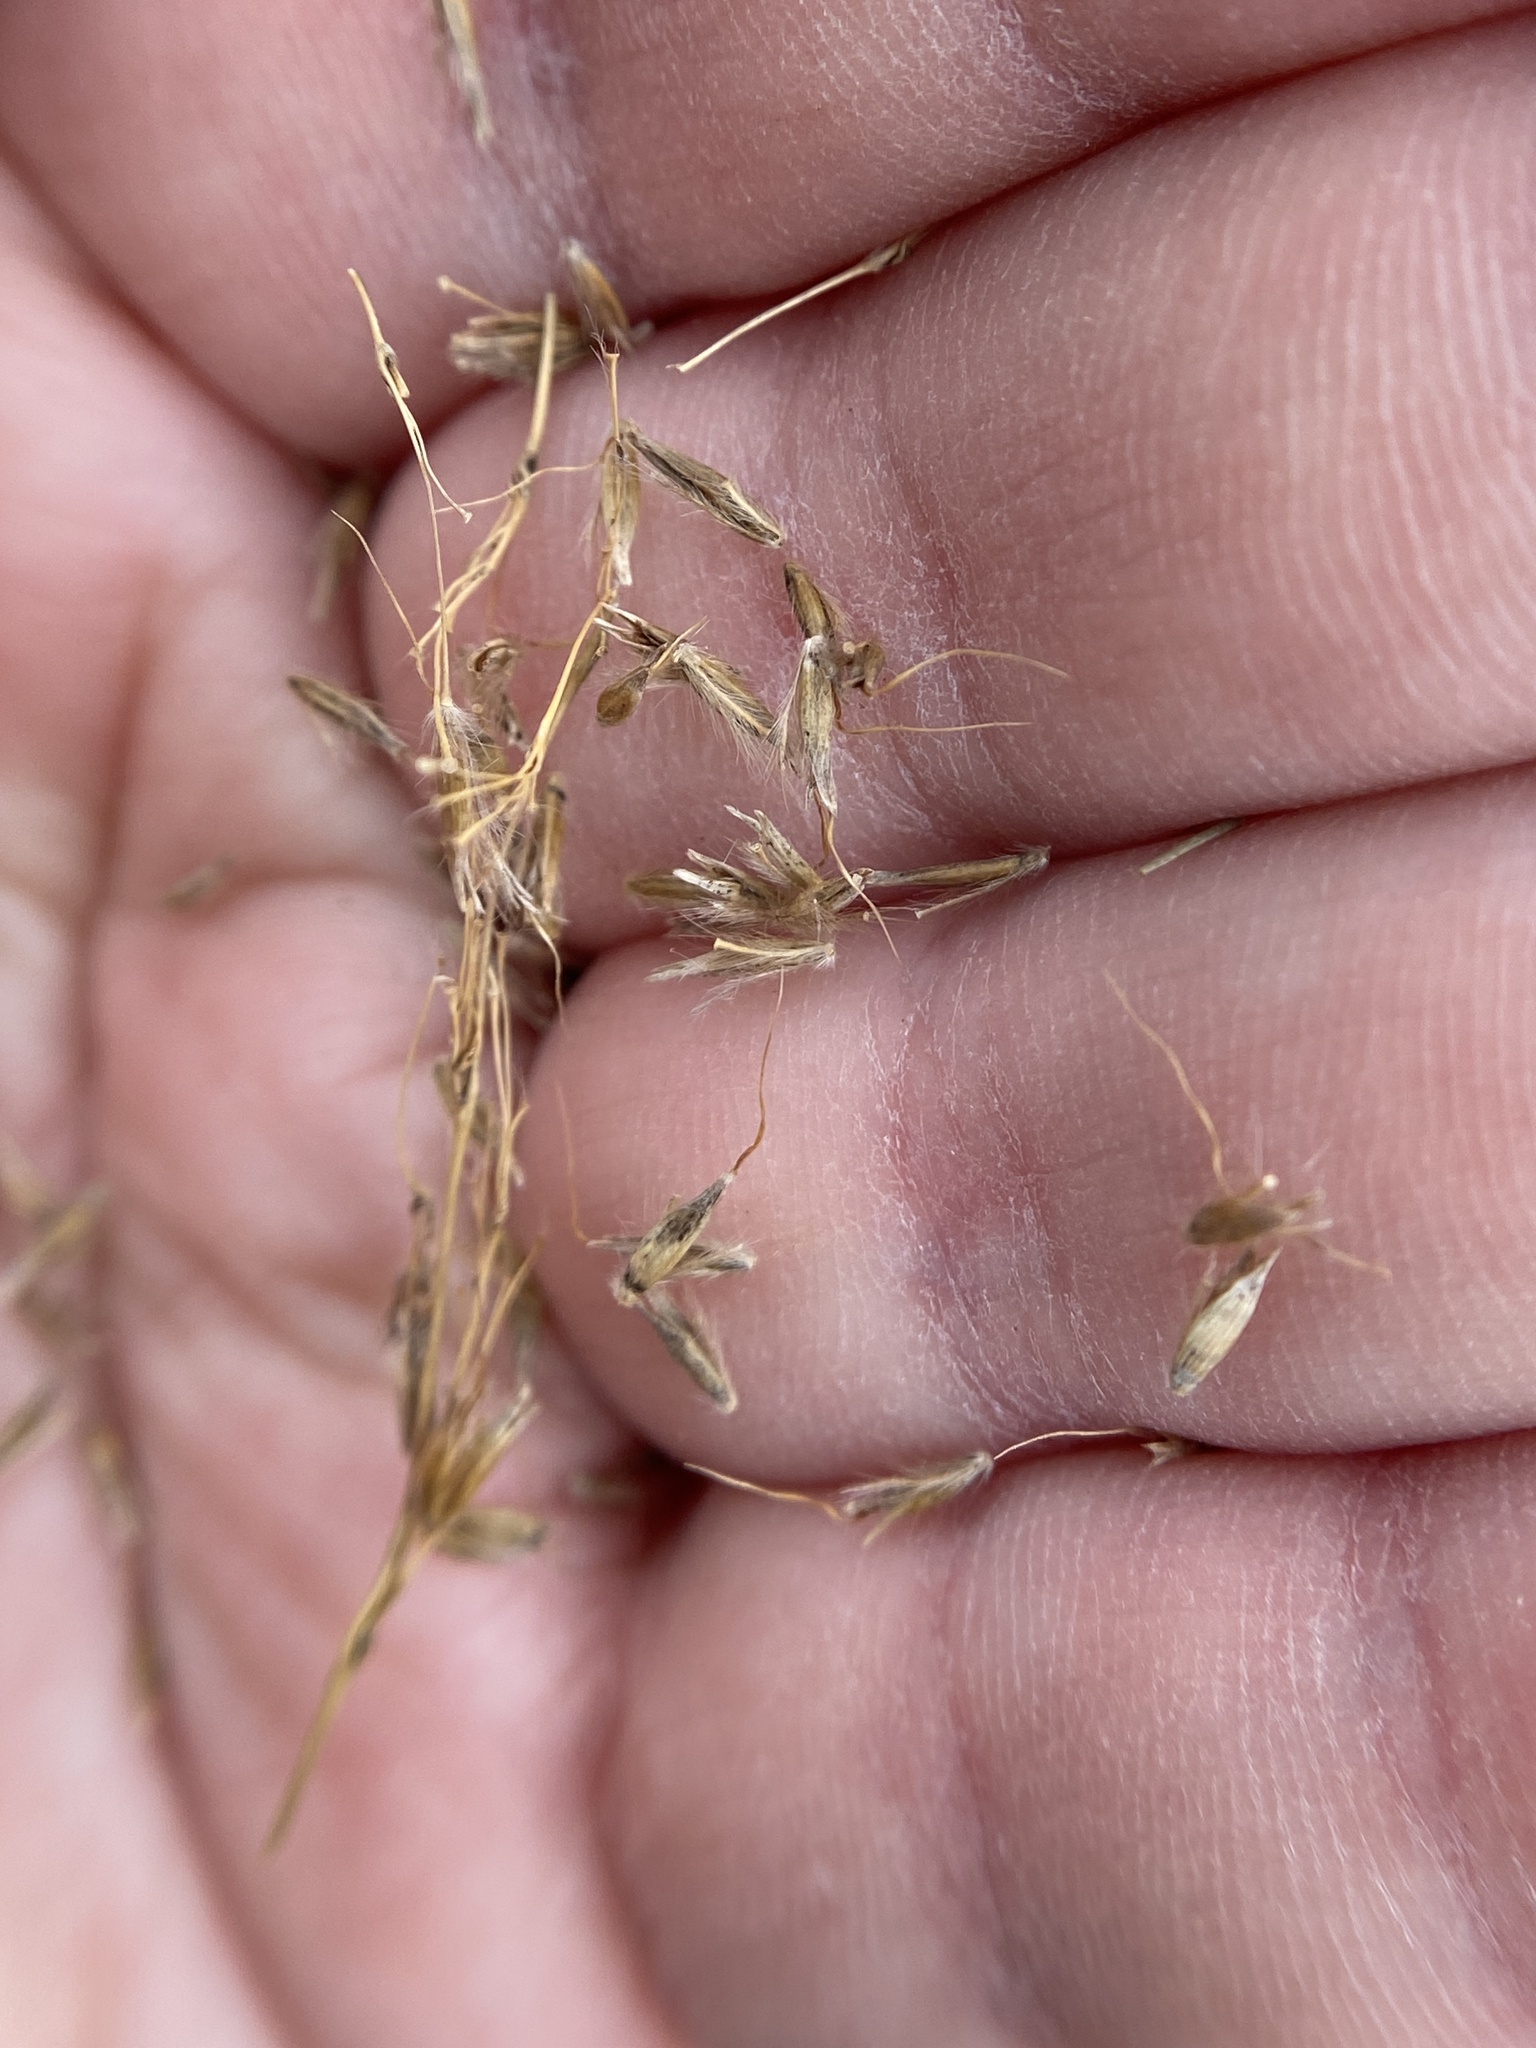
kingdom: Plantae
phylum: Tracheophyta
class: Liliopsida
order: Poales
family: Poaceae
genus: Sorghastrum
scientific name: Sorghastrum nutans
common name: Indian grass
